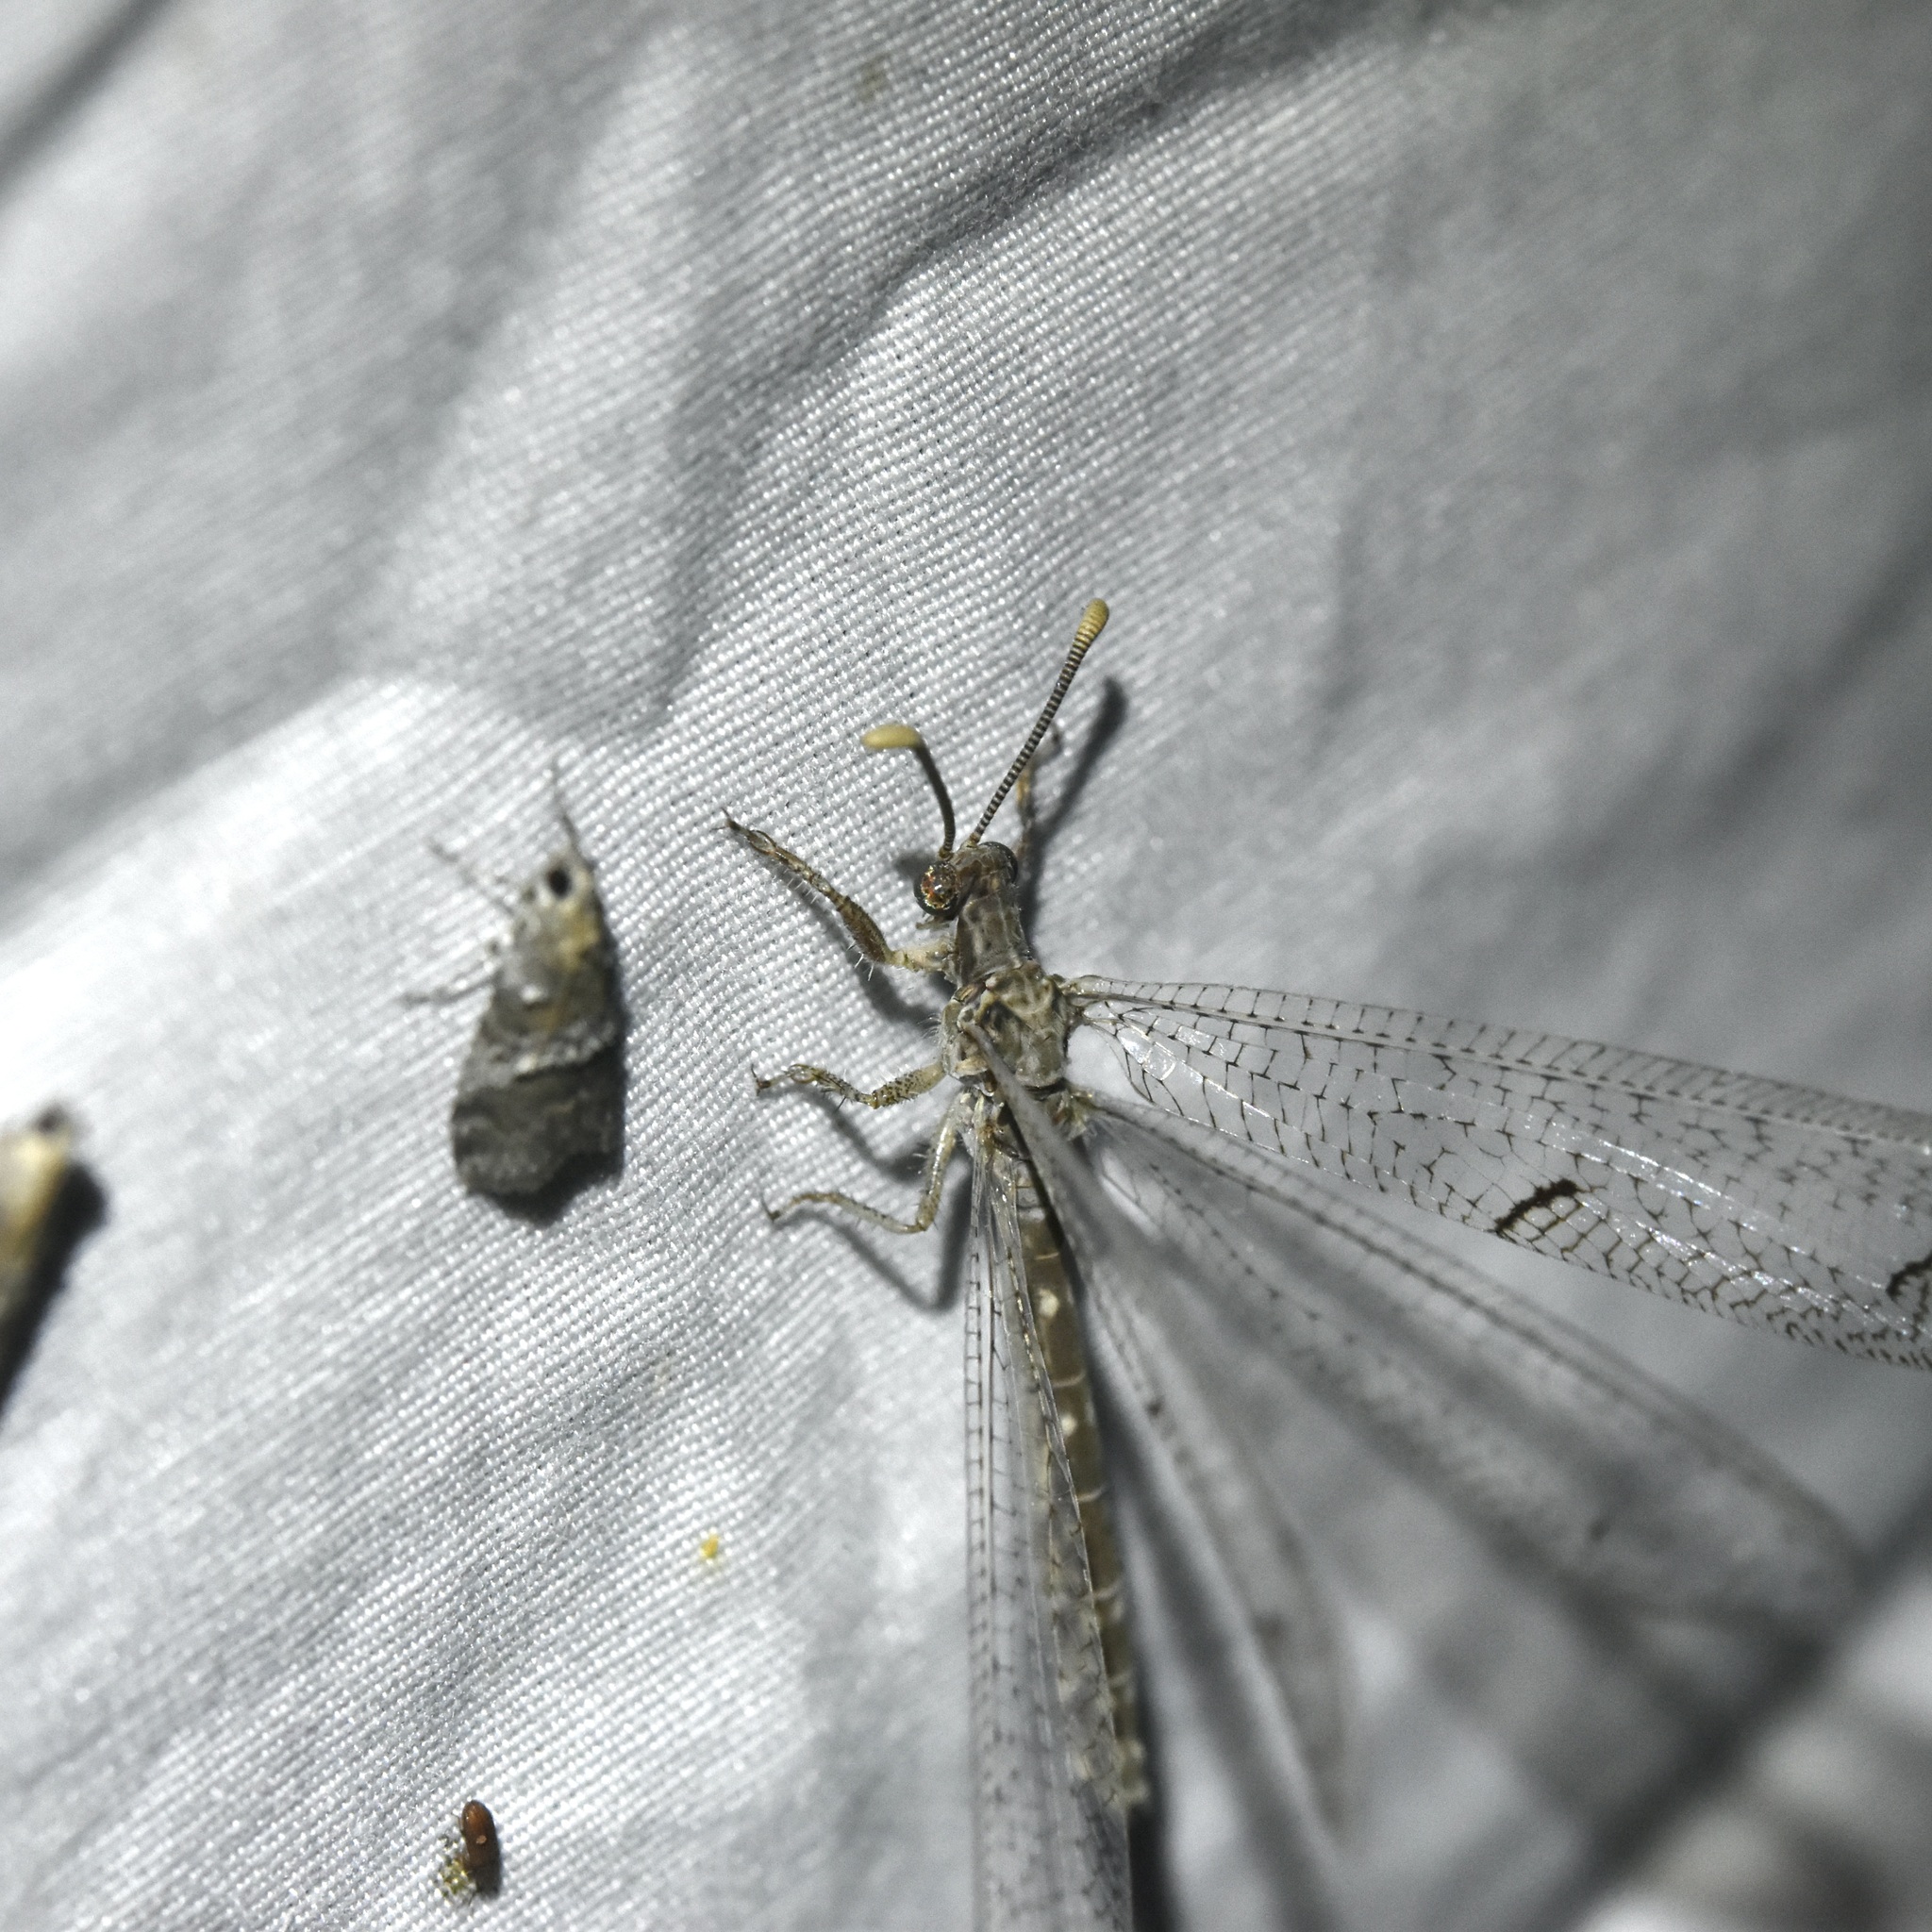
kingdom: Animalia
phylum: Arthropoda
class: Insecta
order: Neuroptera
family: Myrmeleontidae
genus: Euptilon
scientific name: Euptilon ornatum
